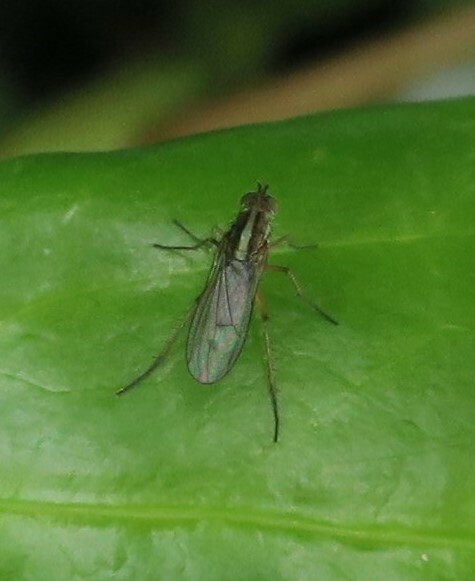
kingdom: Animalia
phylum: Arthropoda
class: Insecta
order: Diptera
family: Dolichopodidae
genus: Tetrachaetus
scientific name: Tetrachaetus bipunctatus
